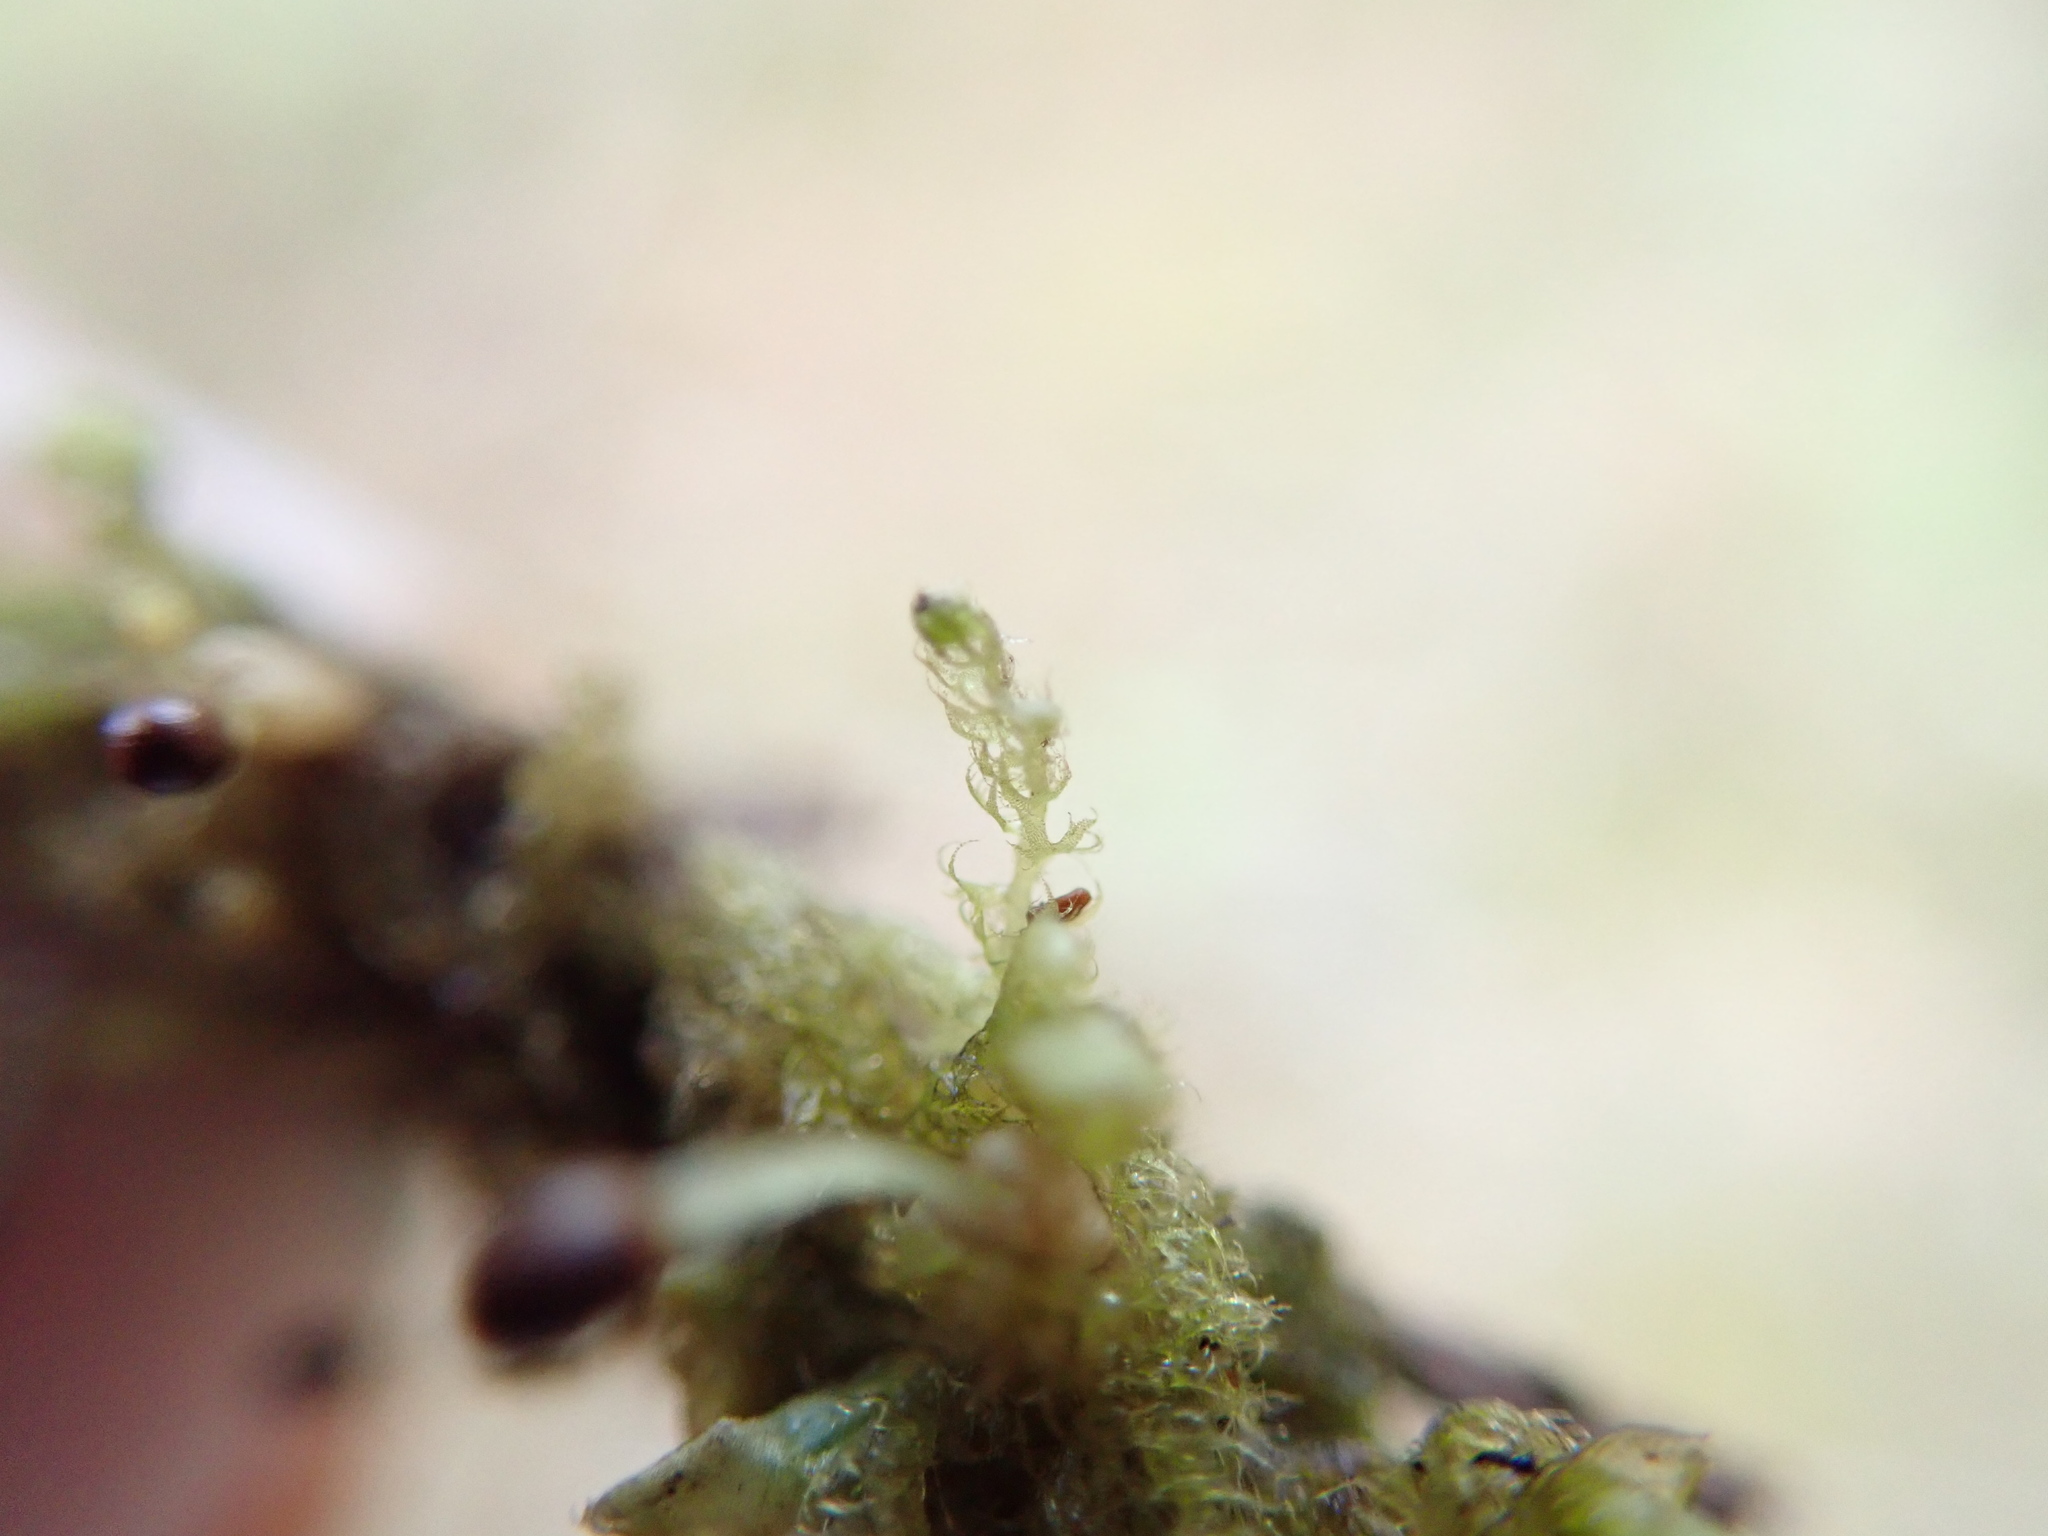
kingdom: Plantae
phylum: Marchantiophyta
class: Jungermanniopsida
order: Ptilidiales
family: Ptilidiaceae
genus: Ptilidium
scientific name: Ptilidium californicum
